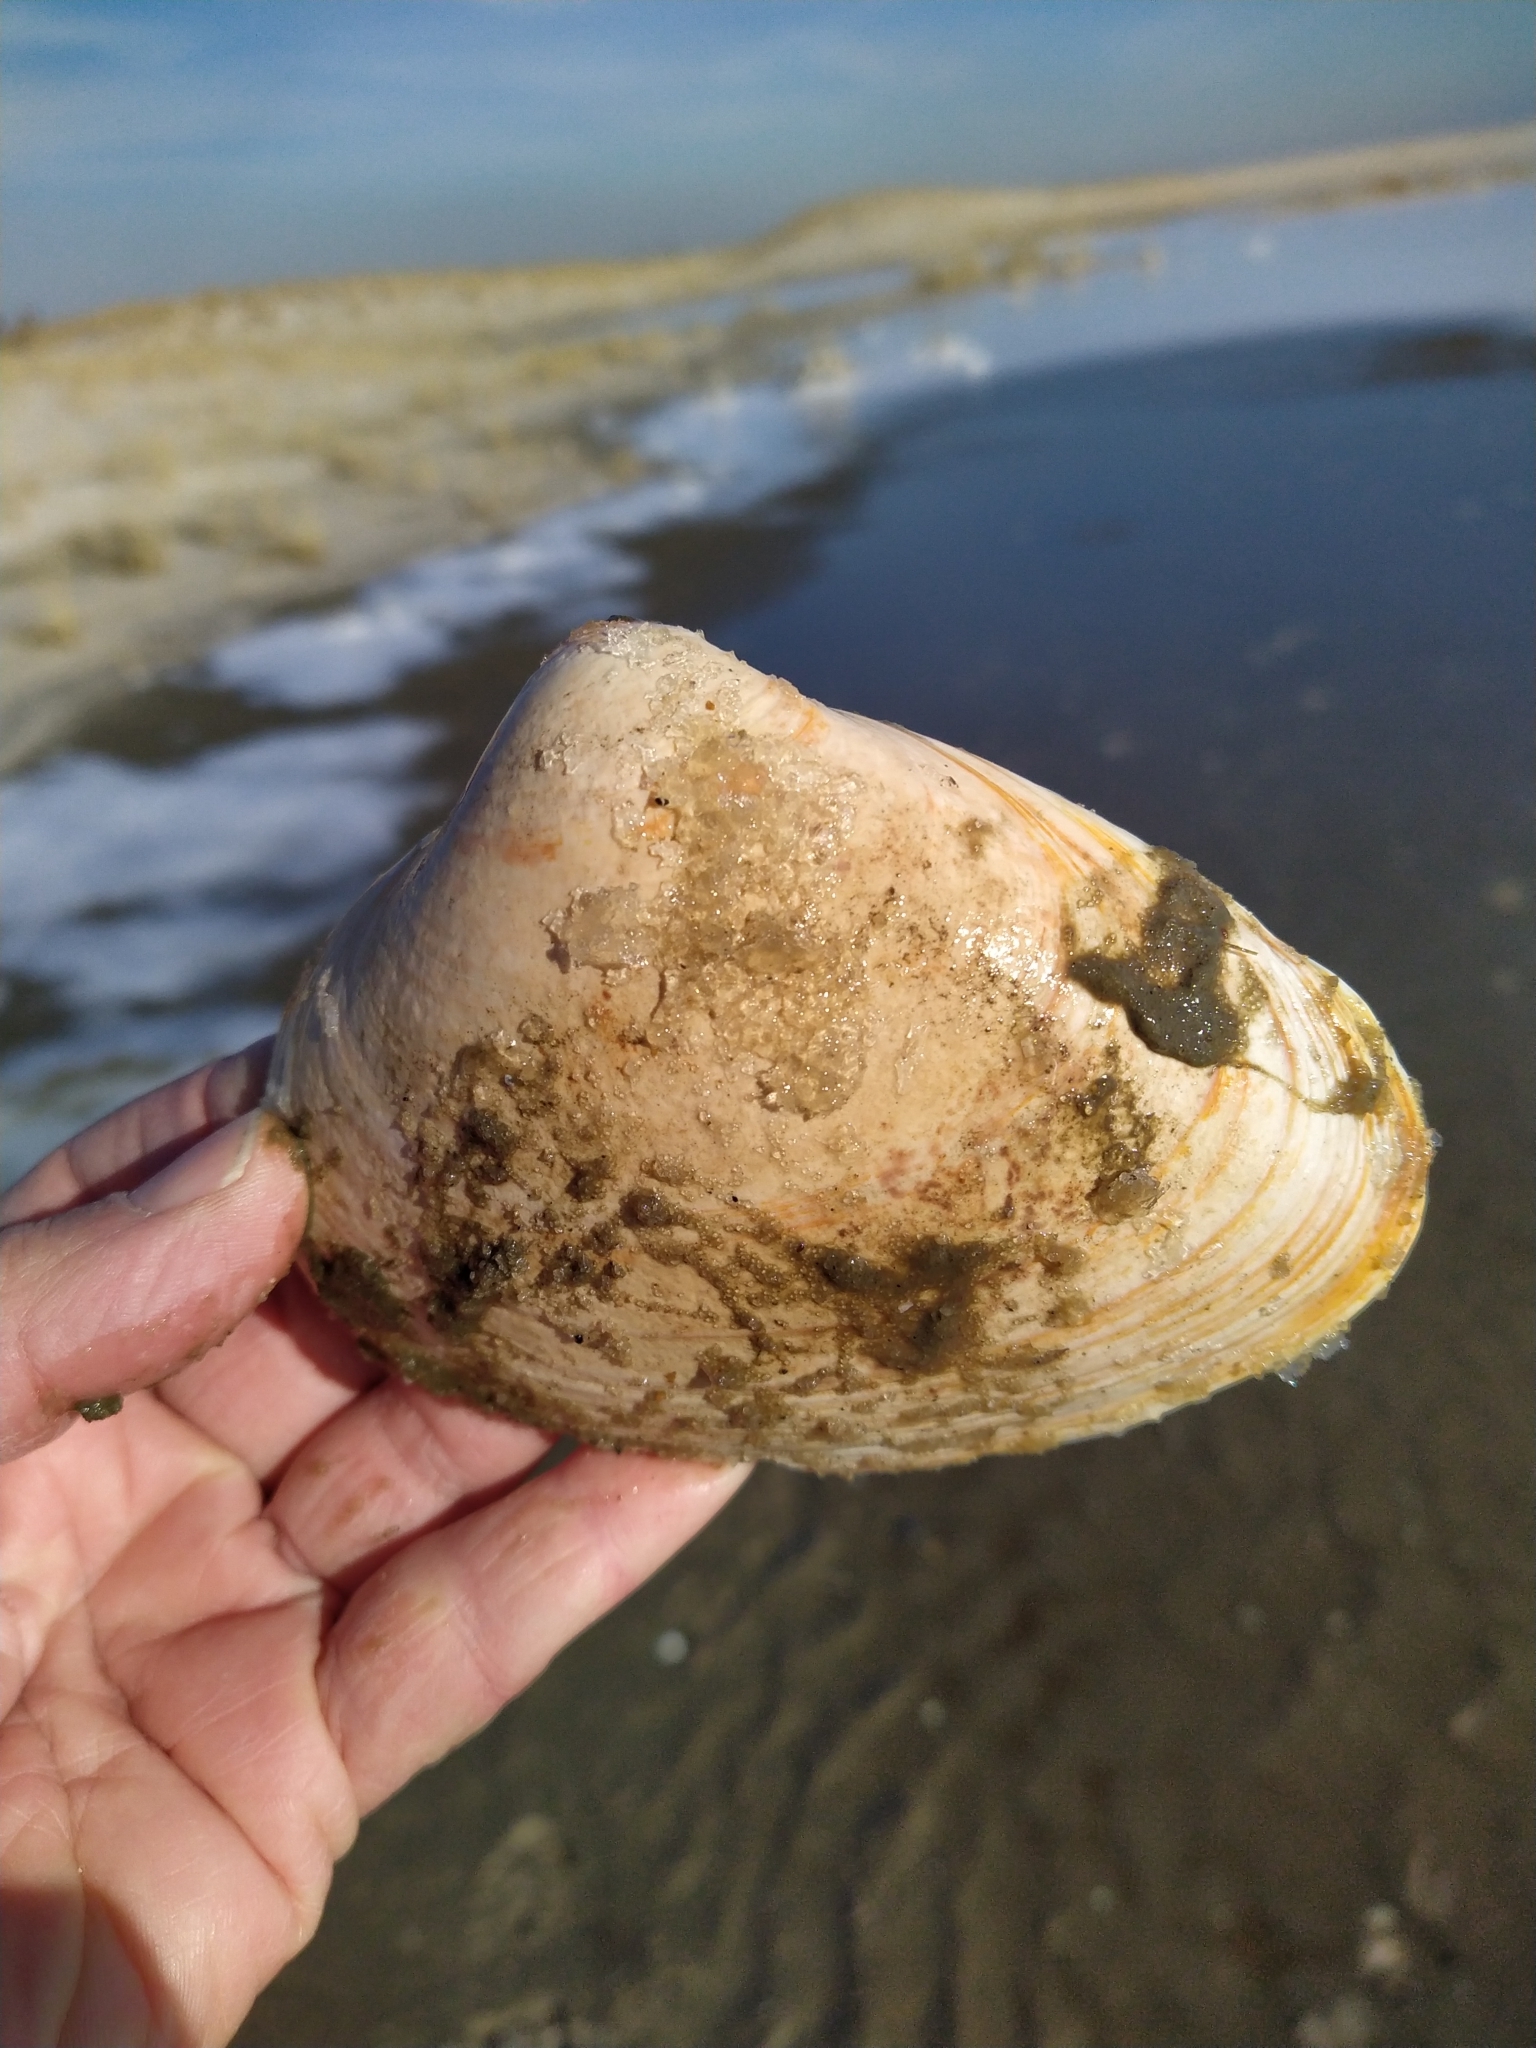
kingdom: Animalia
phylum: Mollusca
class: Bivalvia
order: Venerida
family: Mactridae
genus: Spisula
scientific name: Spisula solidissima
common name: Atlantic surf clam
